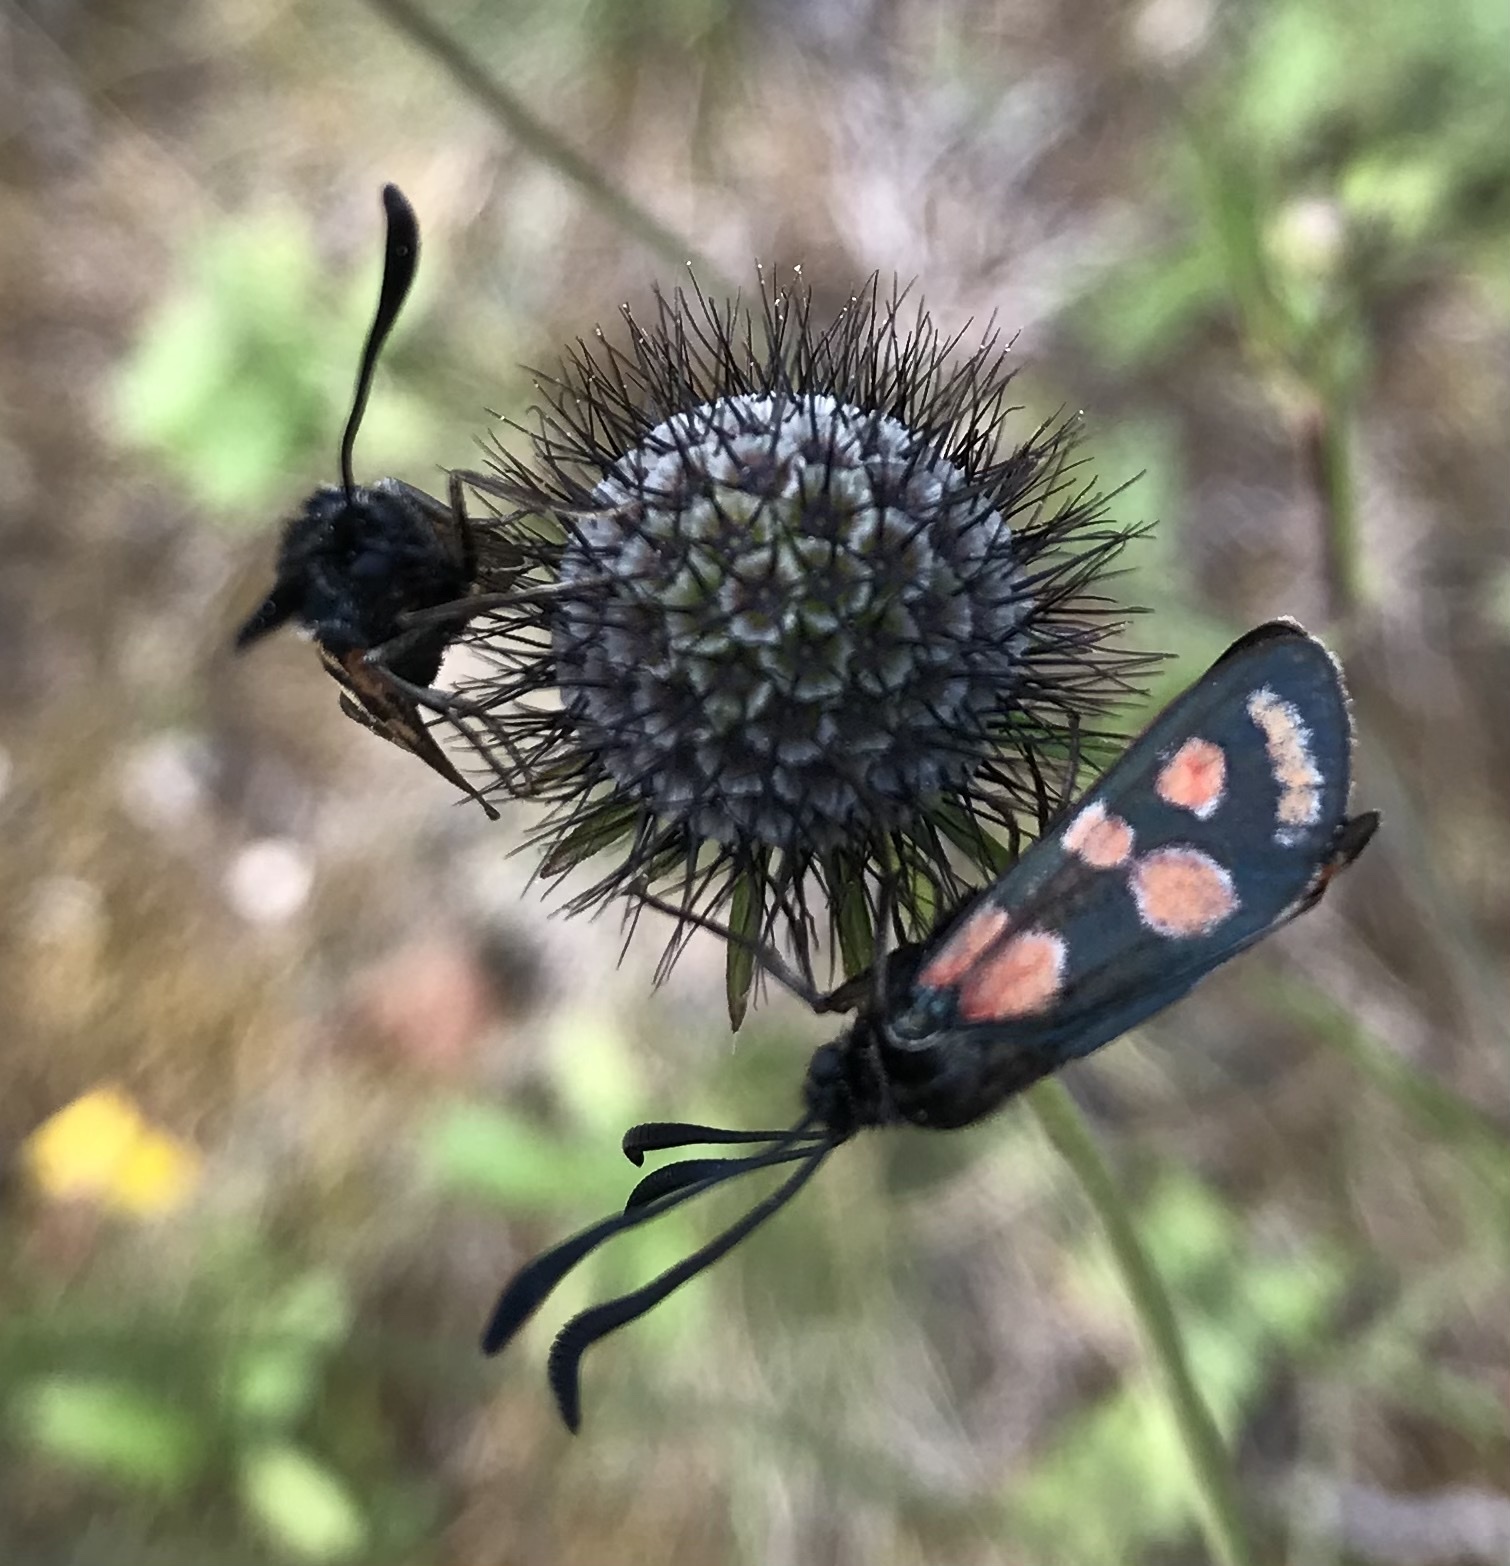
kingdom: Animalia
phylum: Arthropoda
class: Insecta
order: Lepidoptera
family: Zygaenidae
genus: Zygaena
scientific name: Zygaena carniolica
